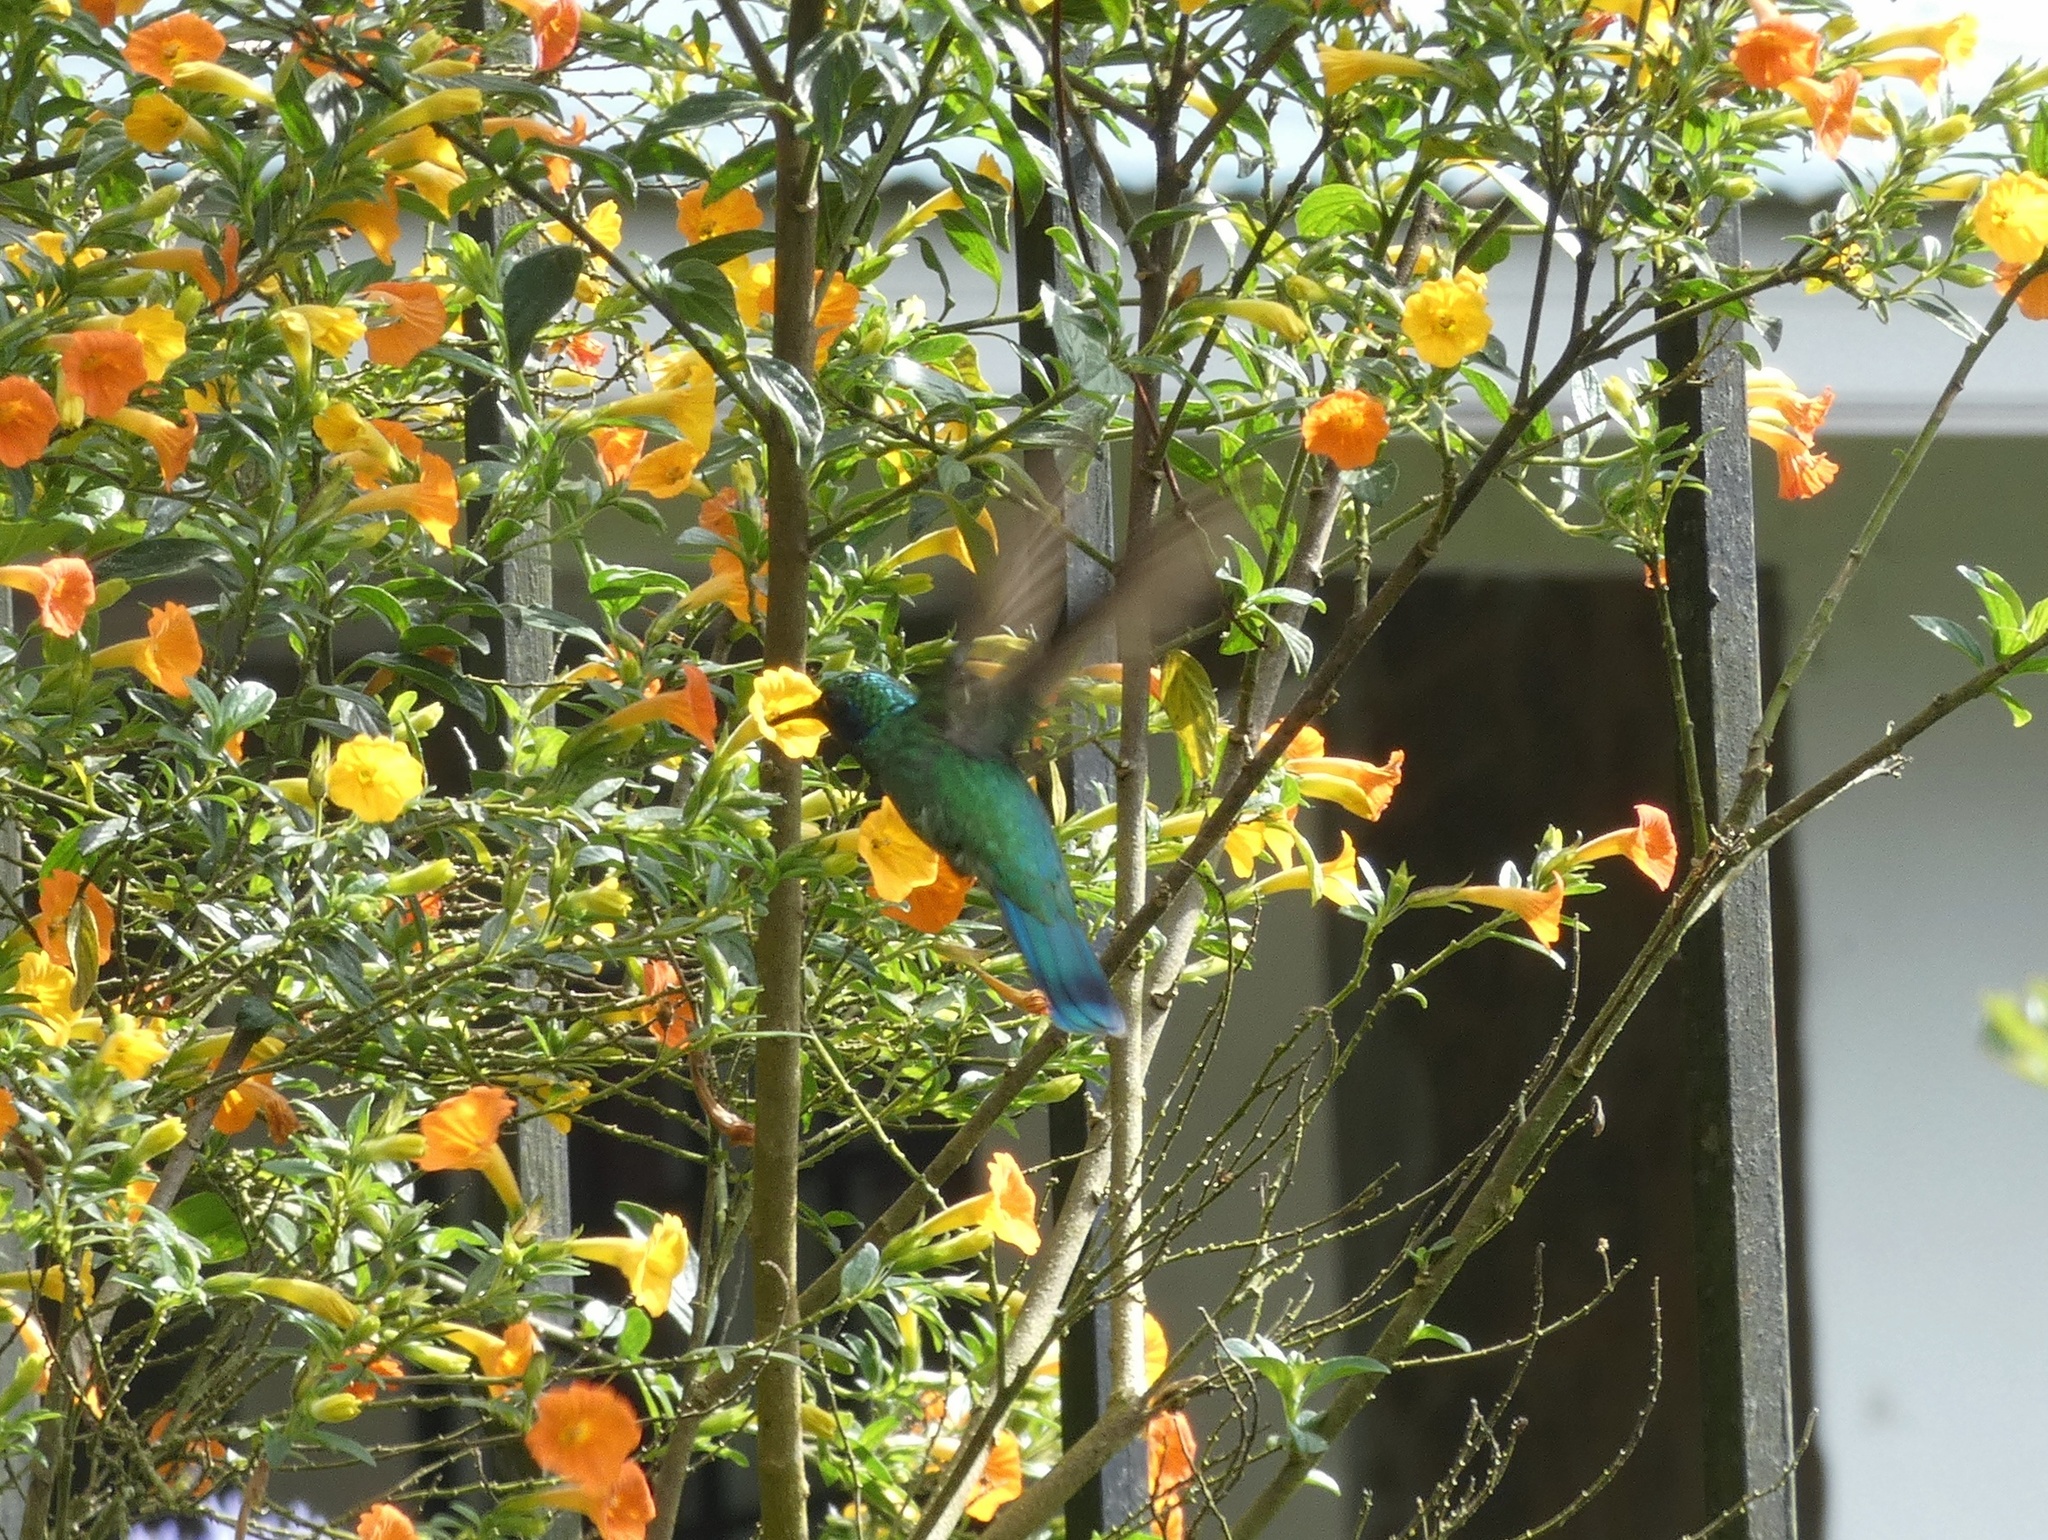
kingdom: Animalia
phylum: Chordata
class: Aves
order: Apodiformes
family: Trochilidae
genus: Colibri
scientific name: Colibri cyanotus
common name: Lesser violetear
